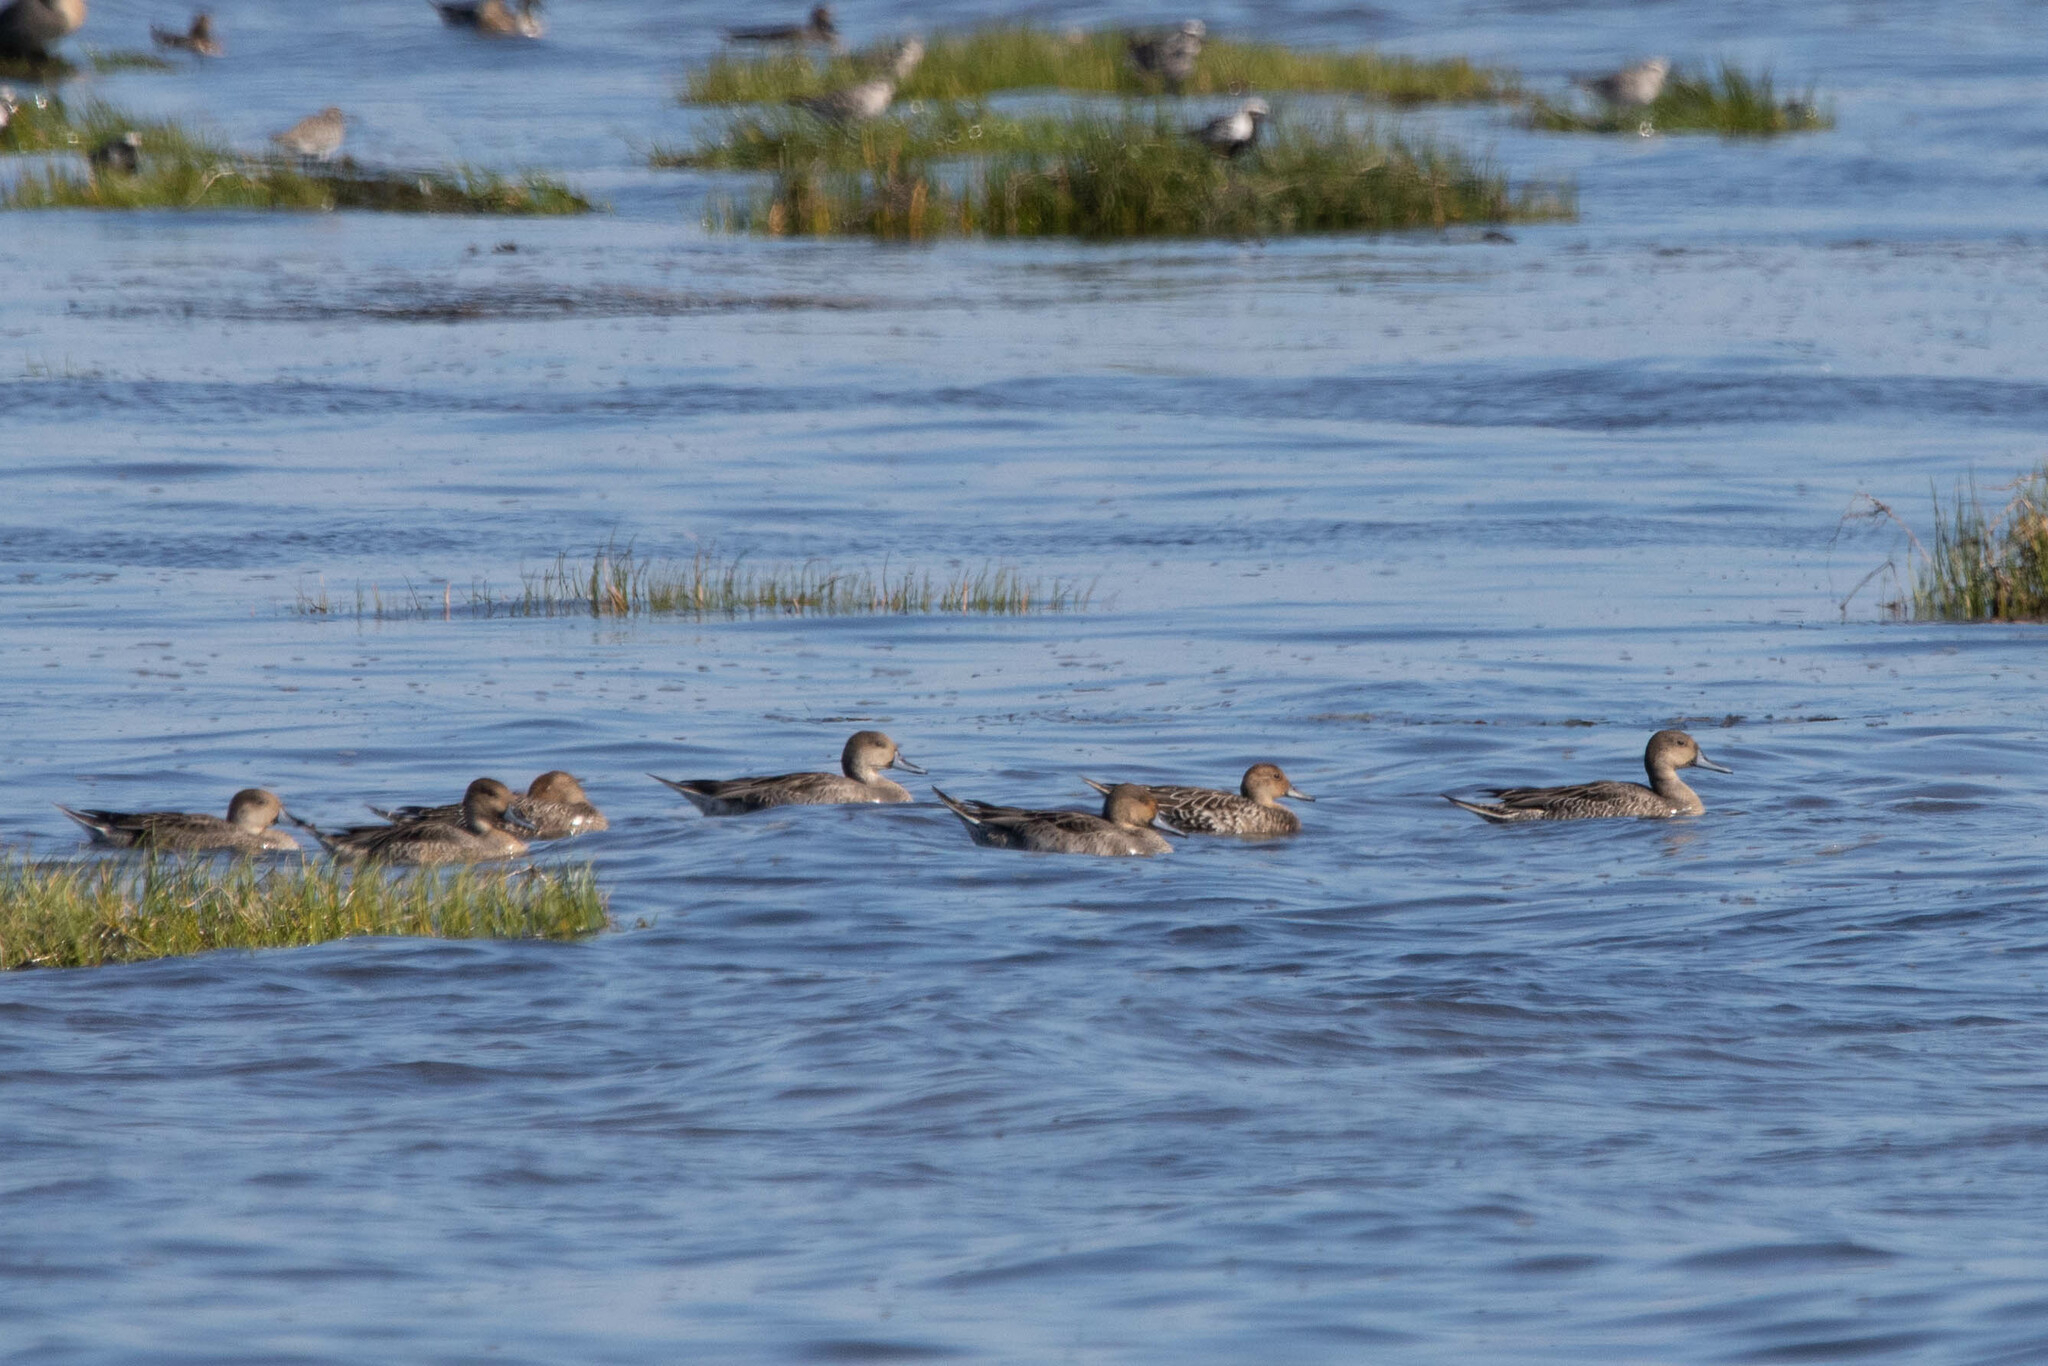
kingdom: Animalia
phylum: Chordata
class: Aves
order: Anseriformes
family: Anatidae
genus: Anas
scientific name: Anas acuta
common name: Northern pintail
